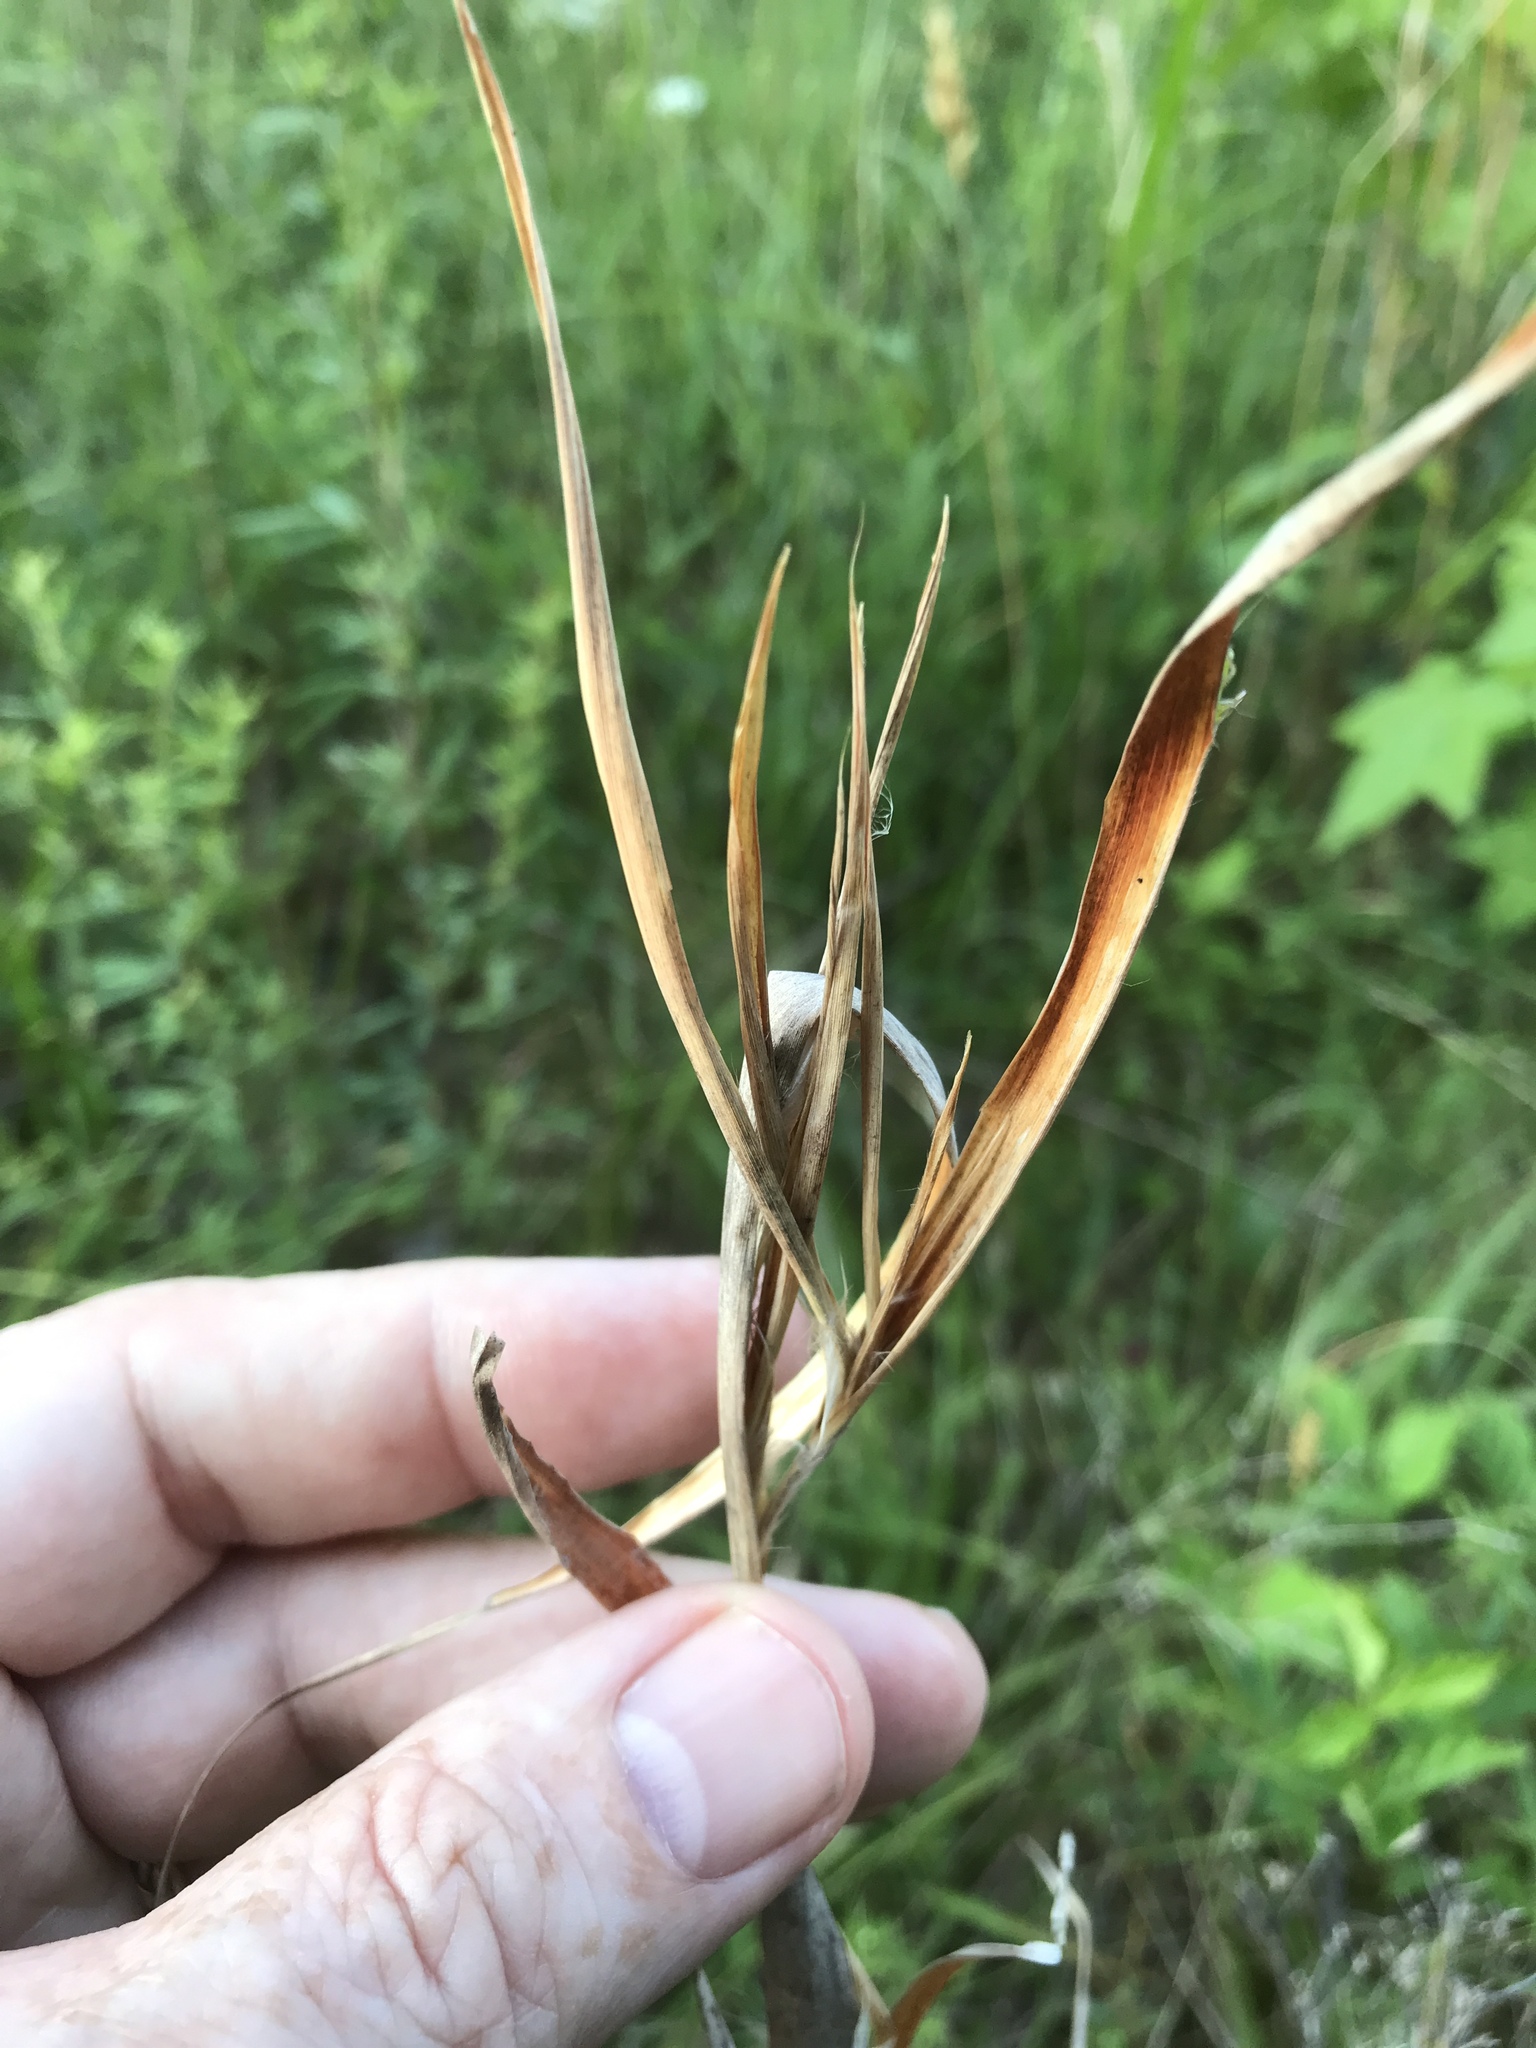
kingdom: Plantae
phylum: Tracheophyta
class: Liliopsida
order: Poales
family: Poaceae
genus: Andropogon
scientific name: Andropogon gyrans
